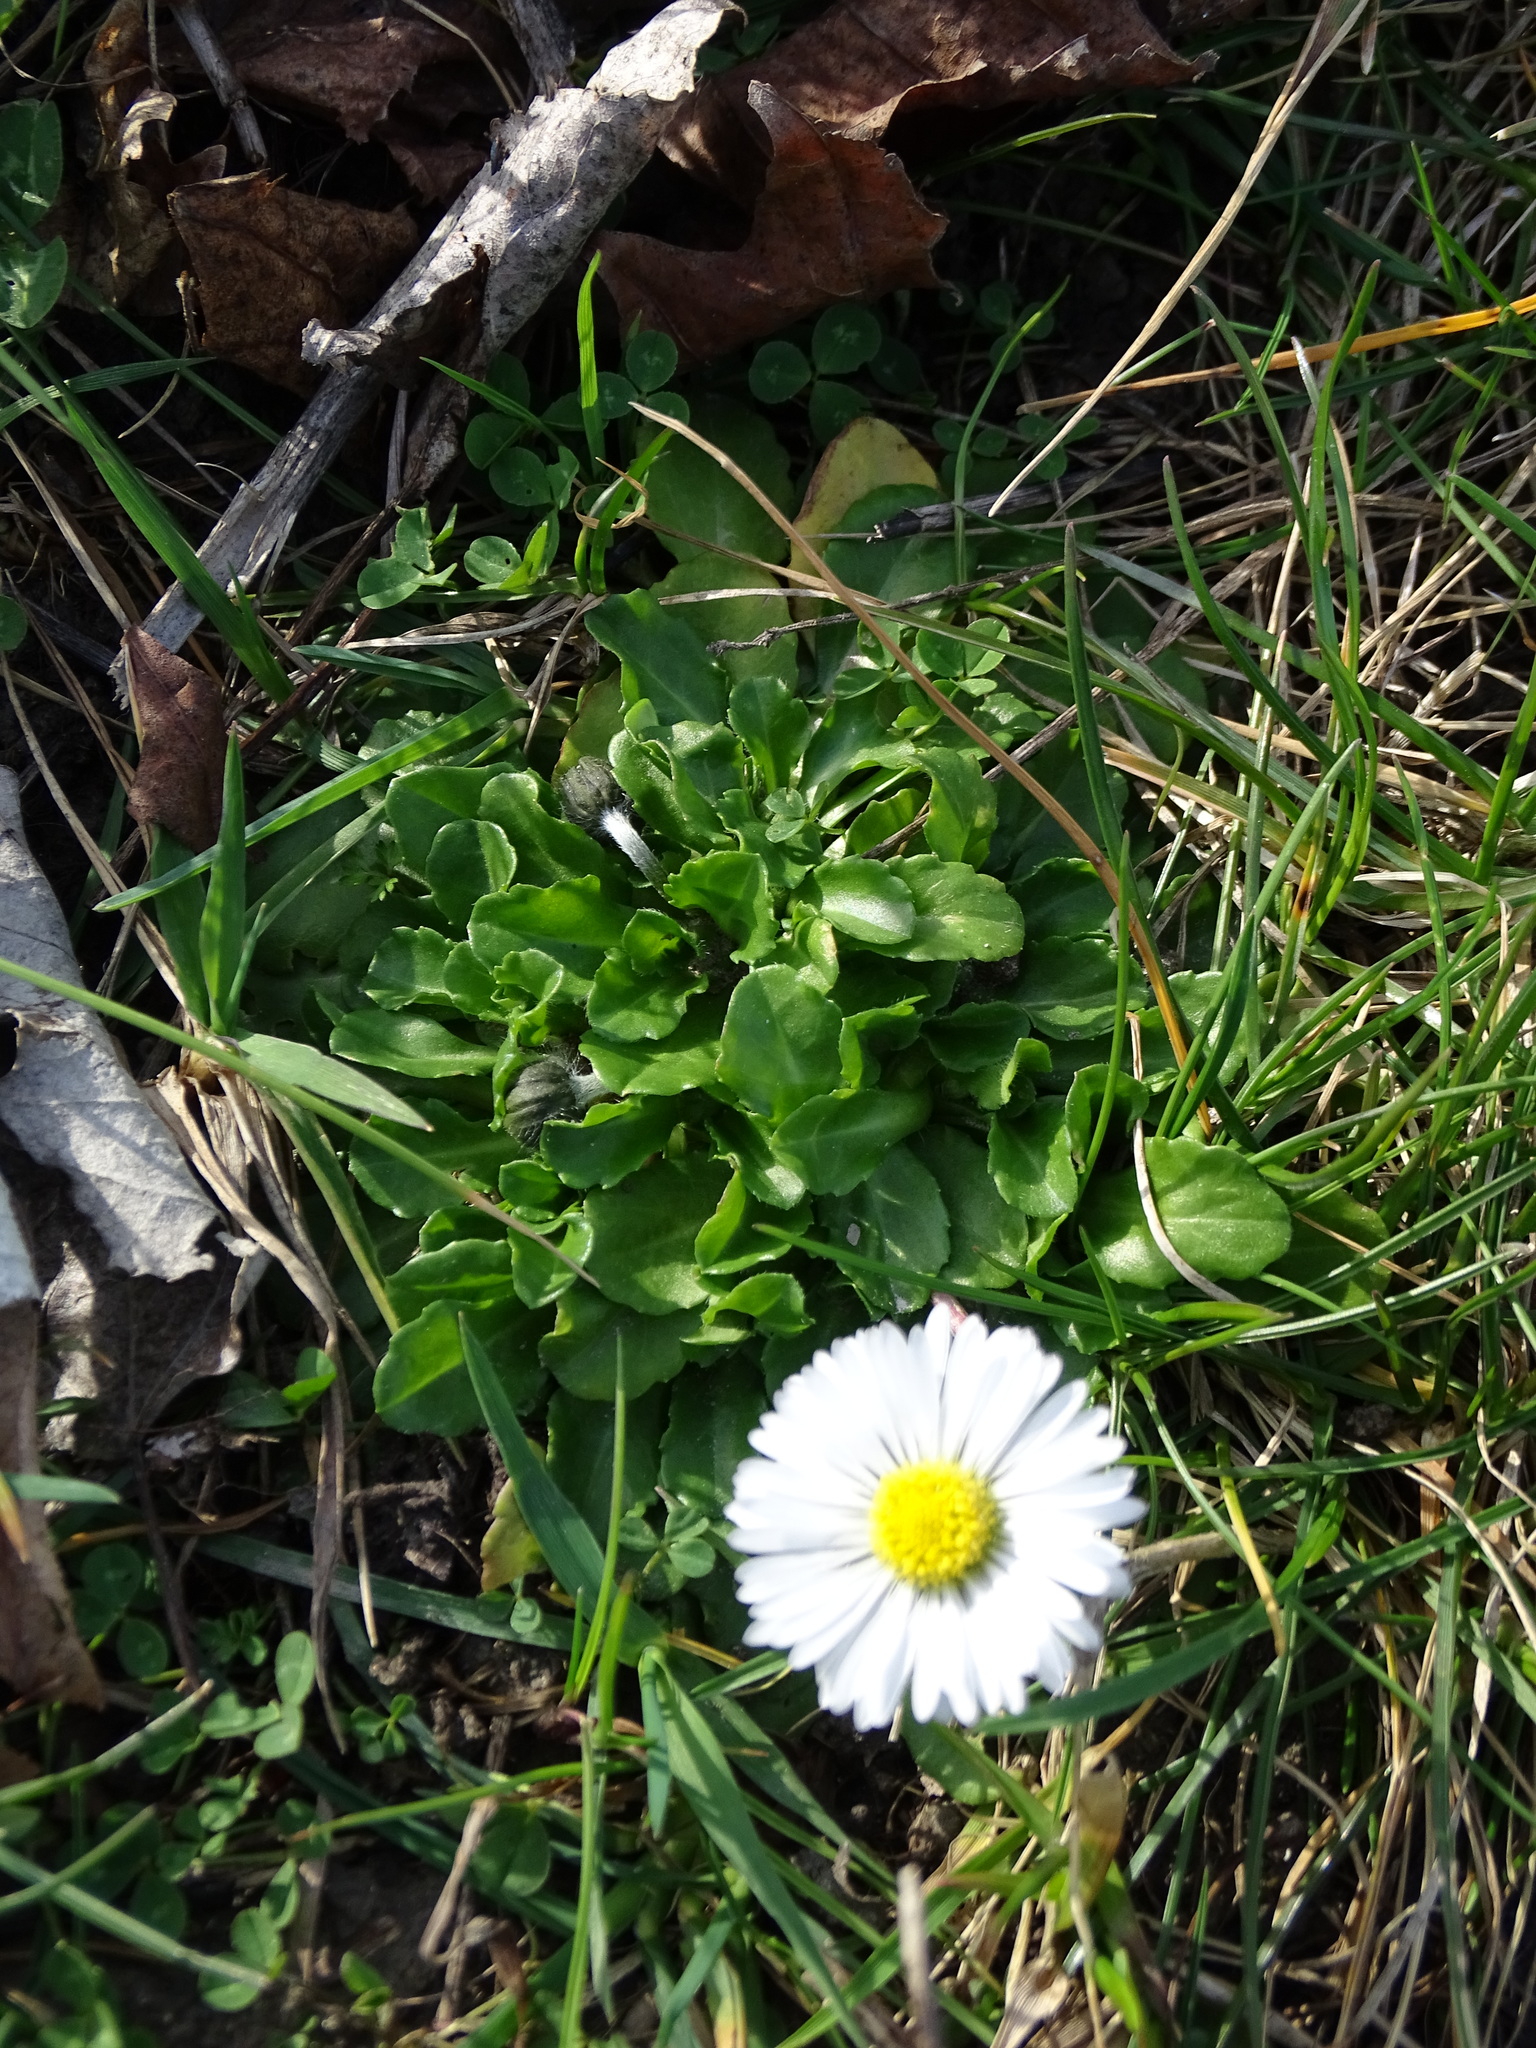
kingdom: Plantae
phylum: Tracheophyta
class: Magnoliopsida
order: Asterales
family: Asteraceae
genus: Bellis
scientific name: Bellis perennis
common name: Lawndaisy
